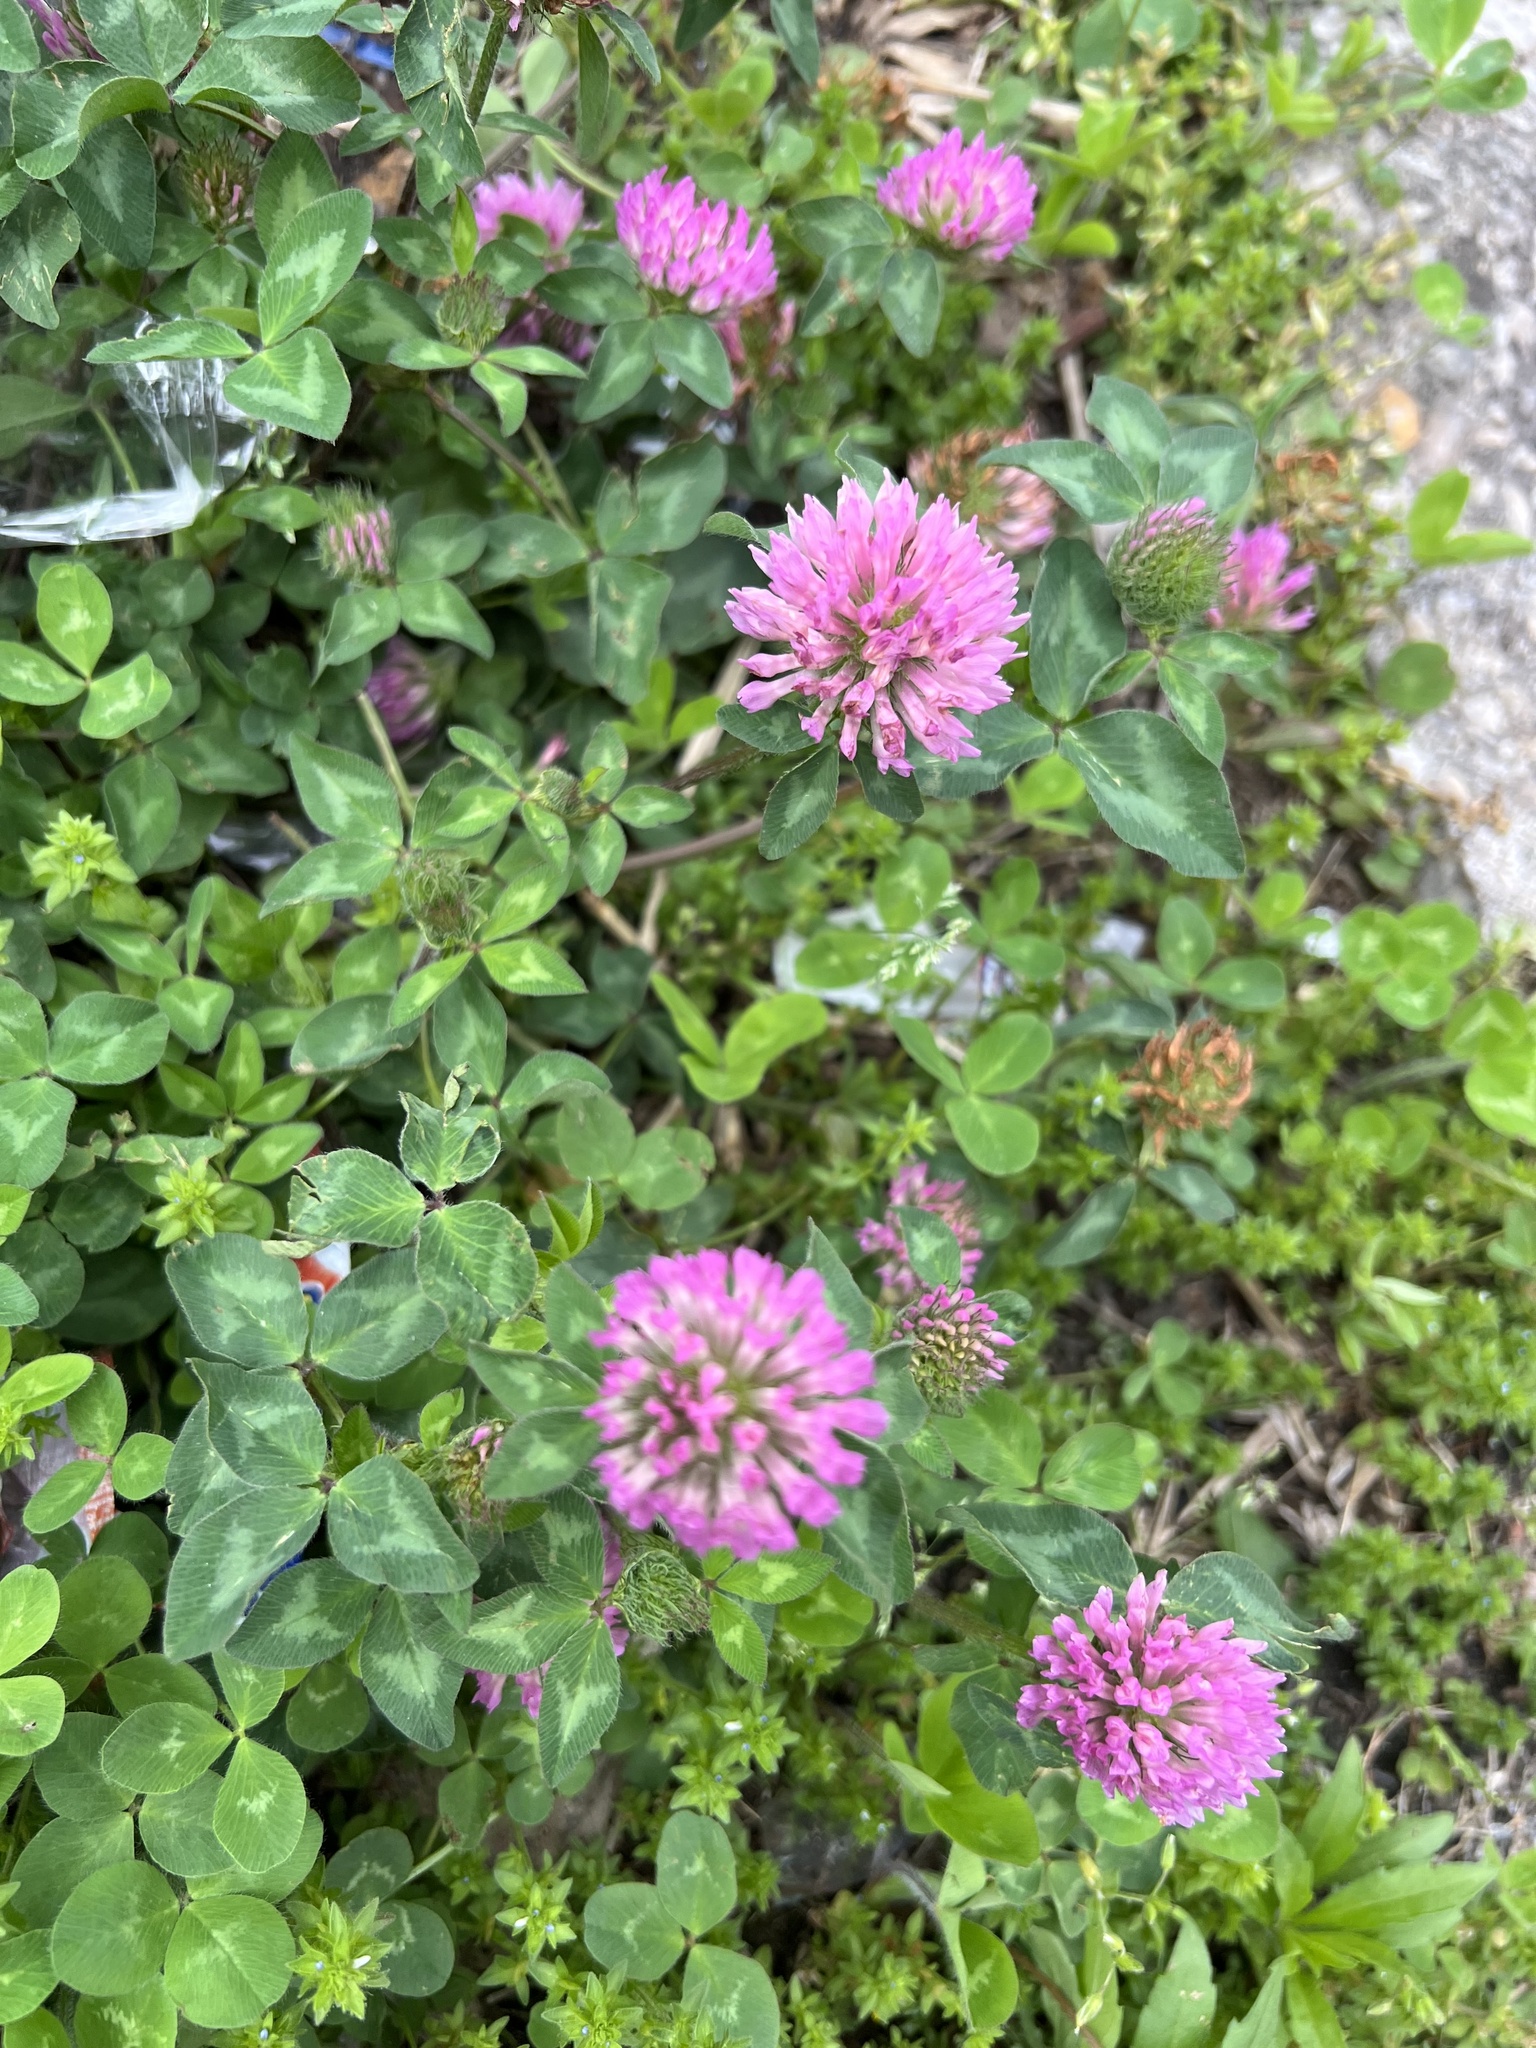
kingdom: Plantae
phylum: Tracheophyta
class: Magnoliopsida
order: Fabales
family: Fabaceae
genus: Trifolium
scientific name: Trifolium pratense
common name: Red clover
